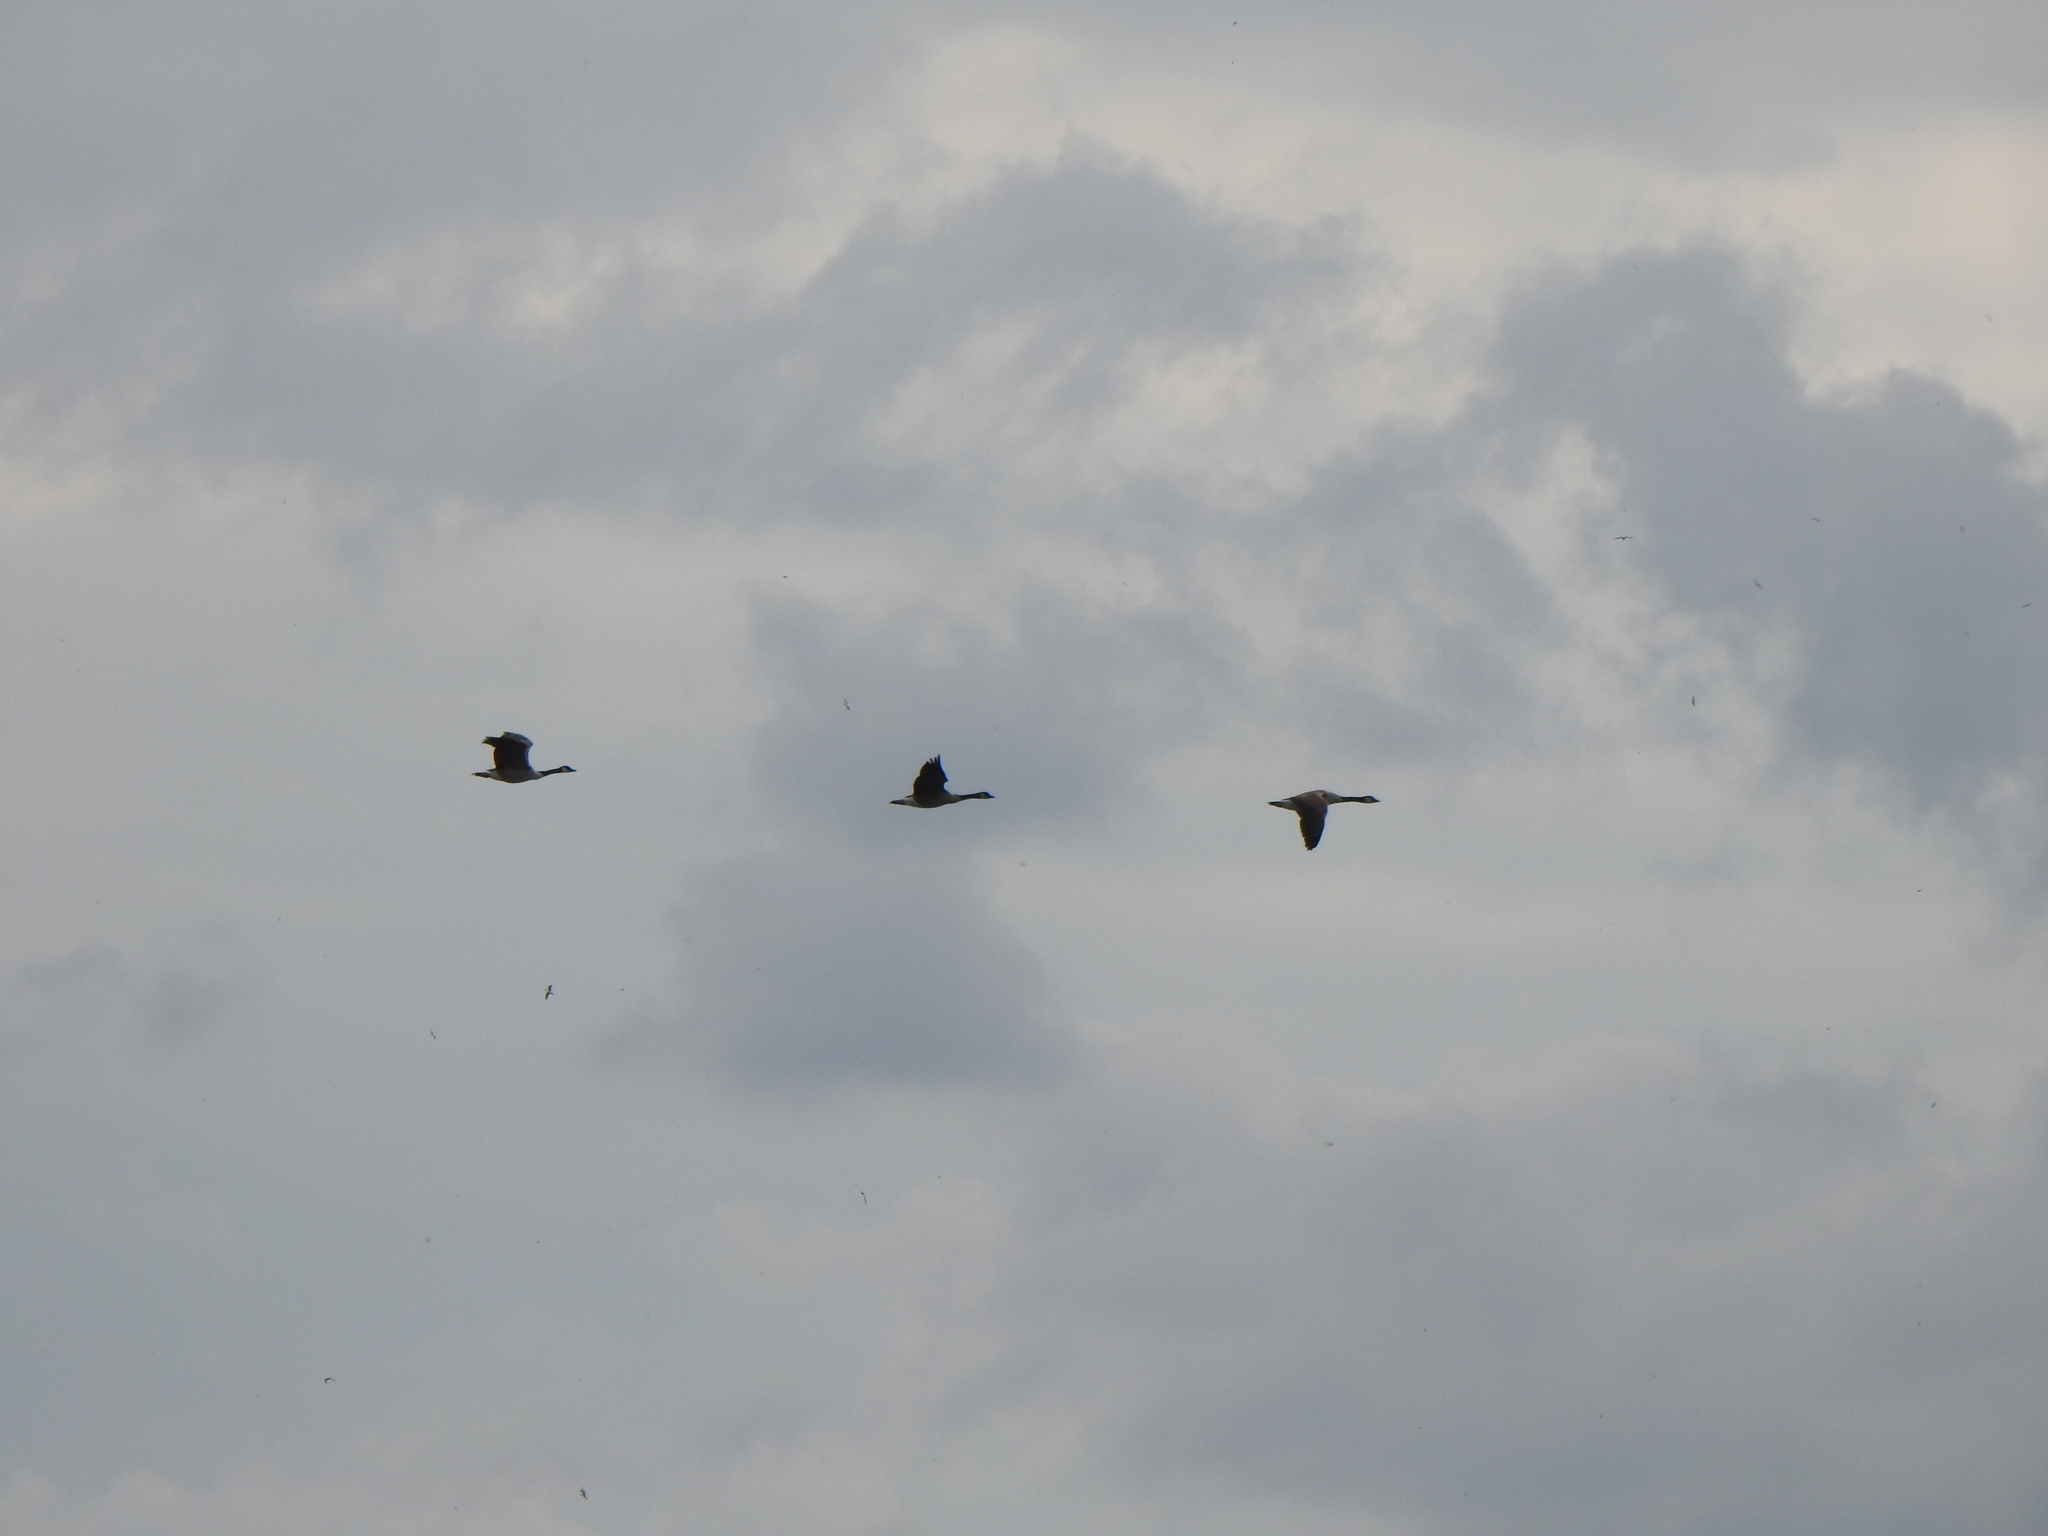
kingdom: Animalia
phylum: Chordata
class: Aves
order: Anseriformes
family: Anatidae
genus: Branta
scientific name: Branta canadensis
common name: Canada goose
